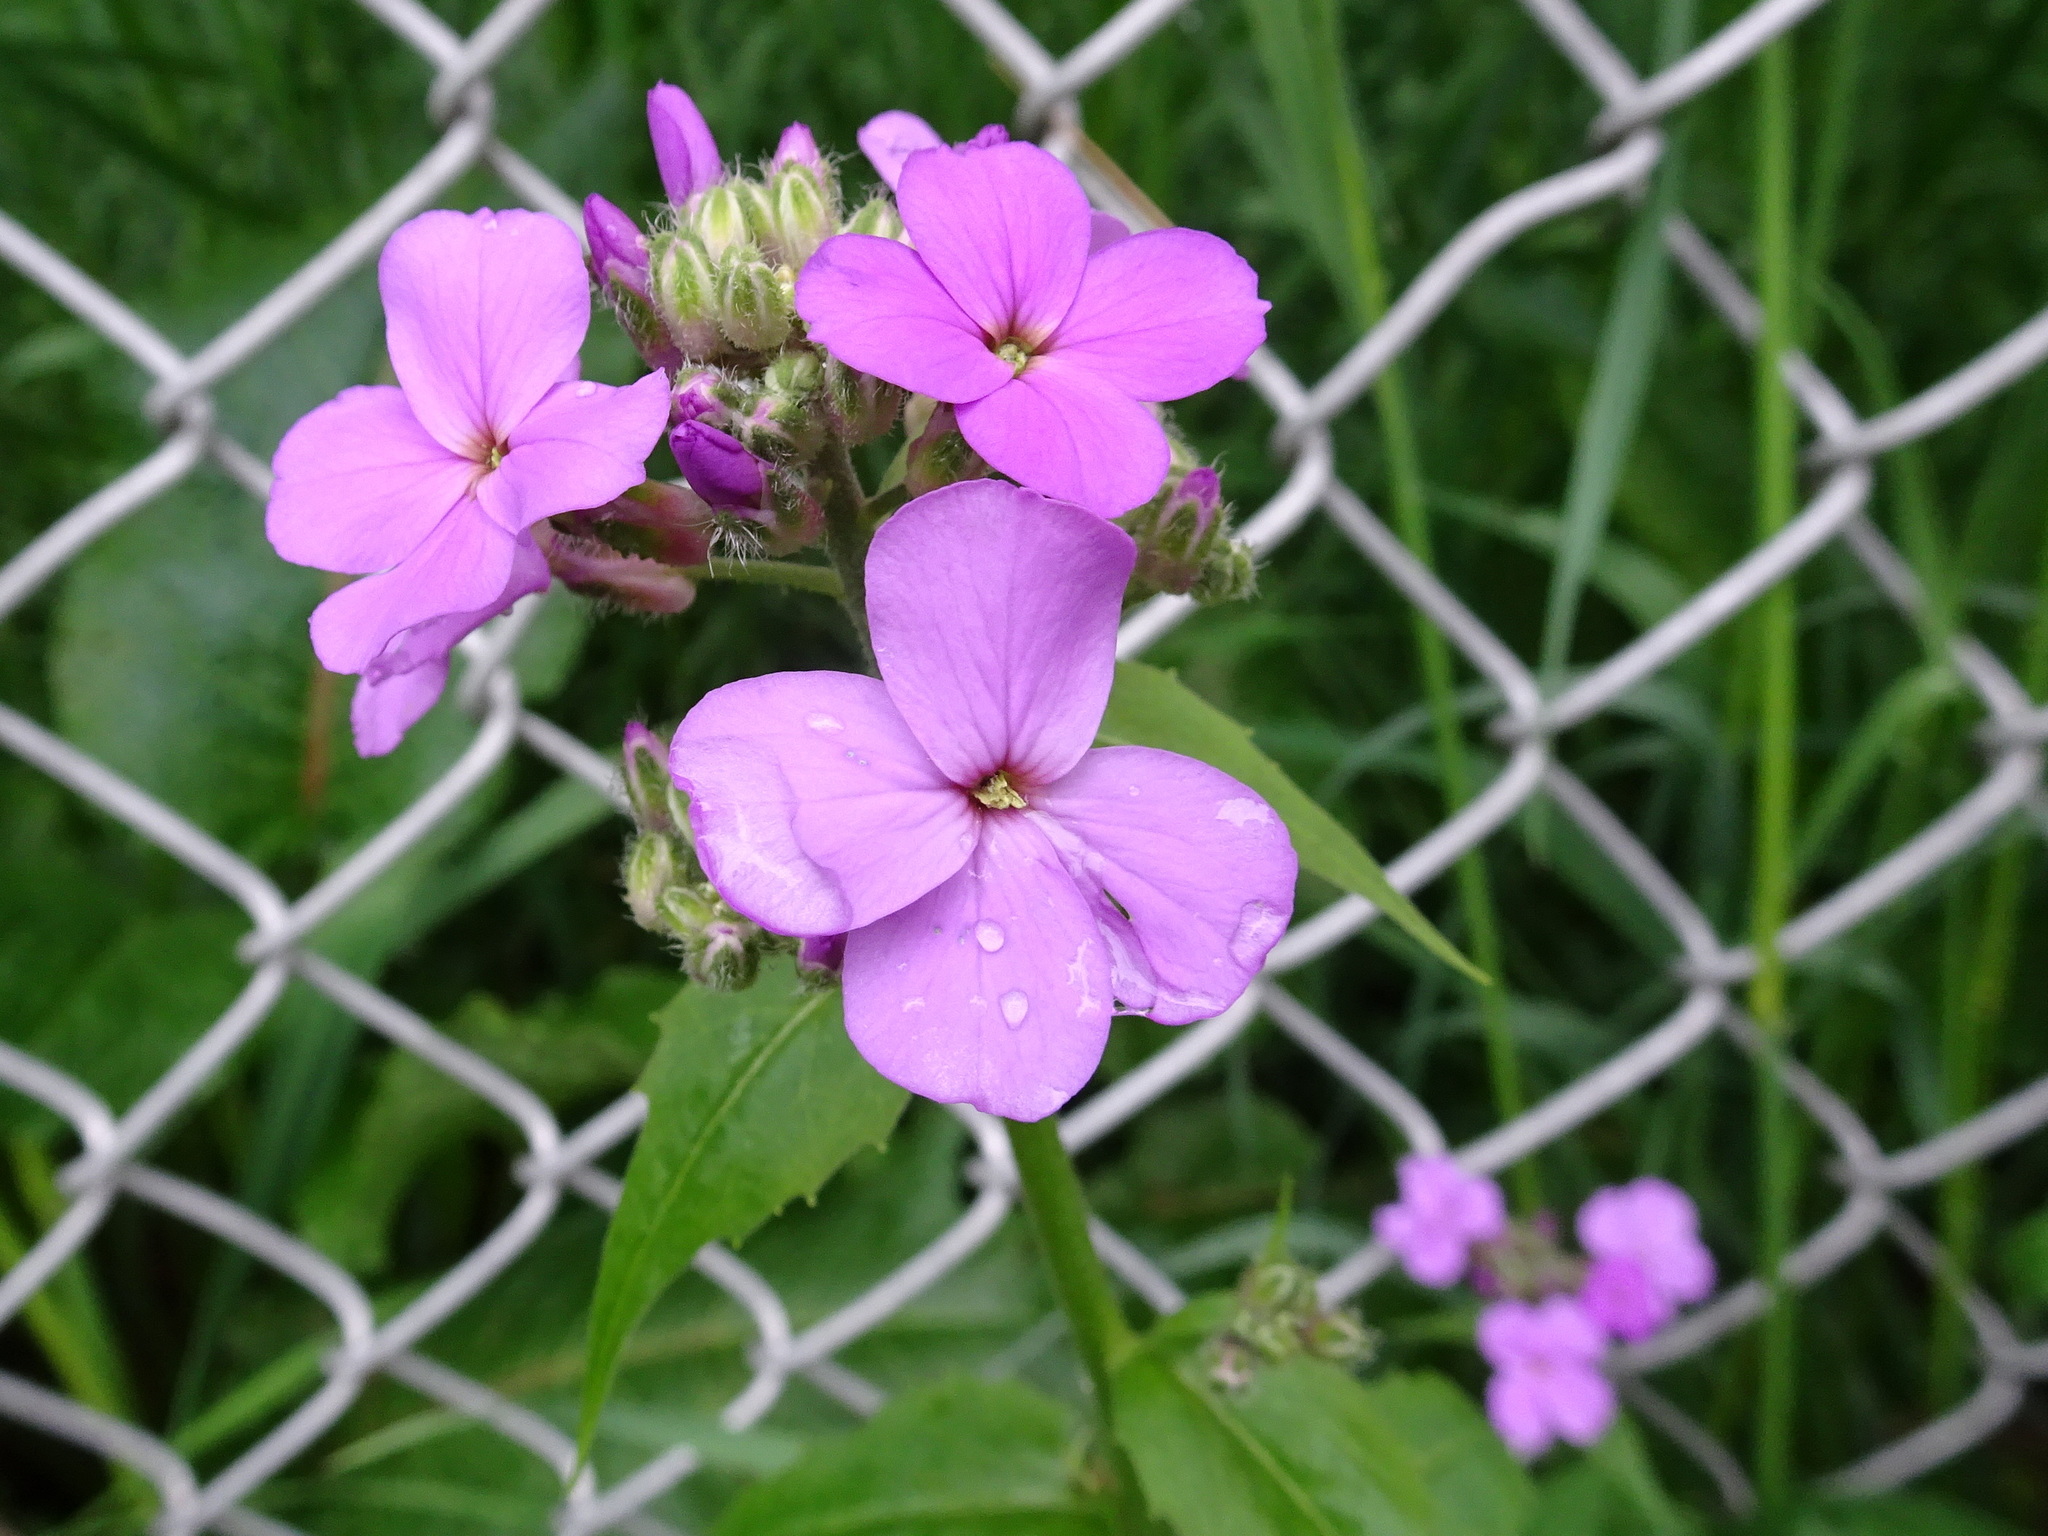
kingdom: Plantae
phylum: Tracheophyta
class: Magnoliopsida
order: Brassicales
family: Brassicaceae
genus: Hesperis
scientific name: Hesperis matronalis
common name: Dame's-violet
